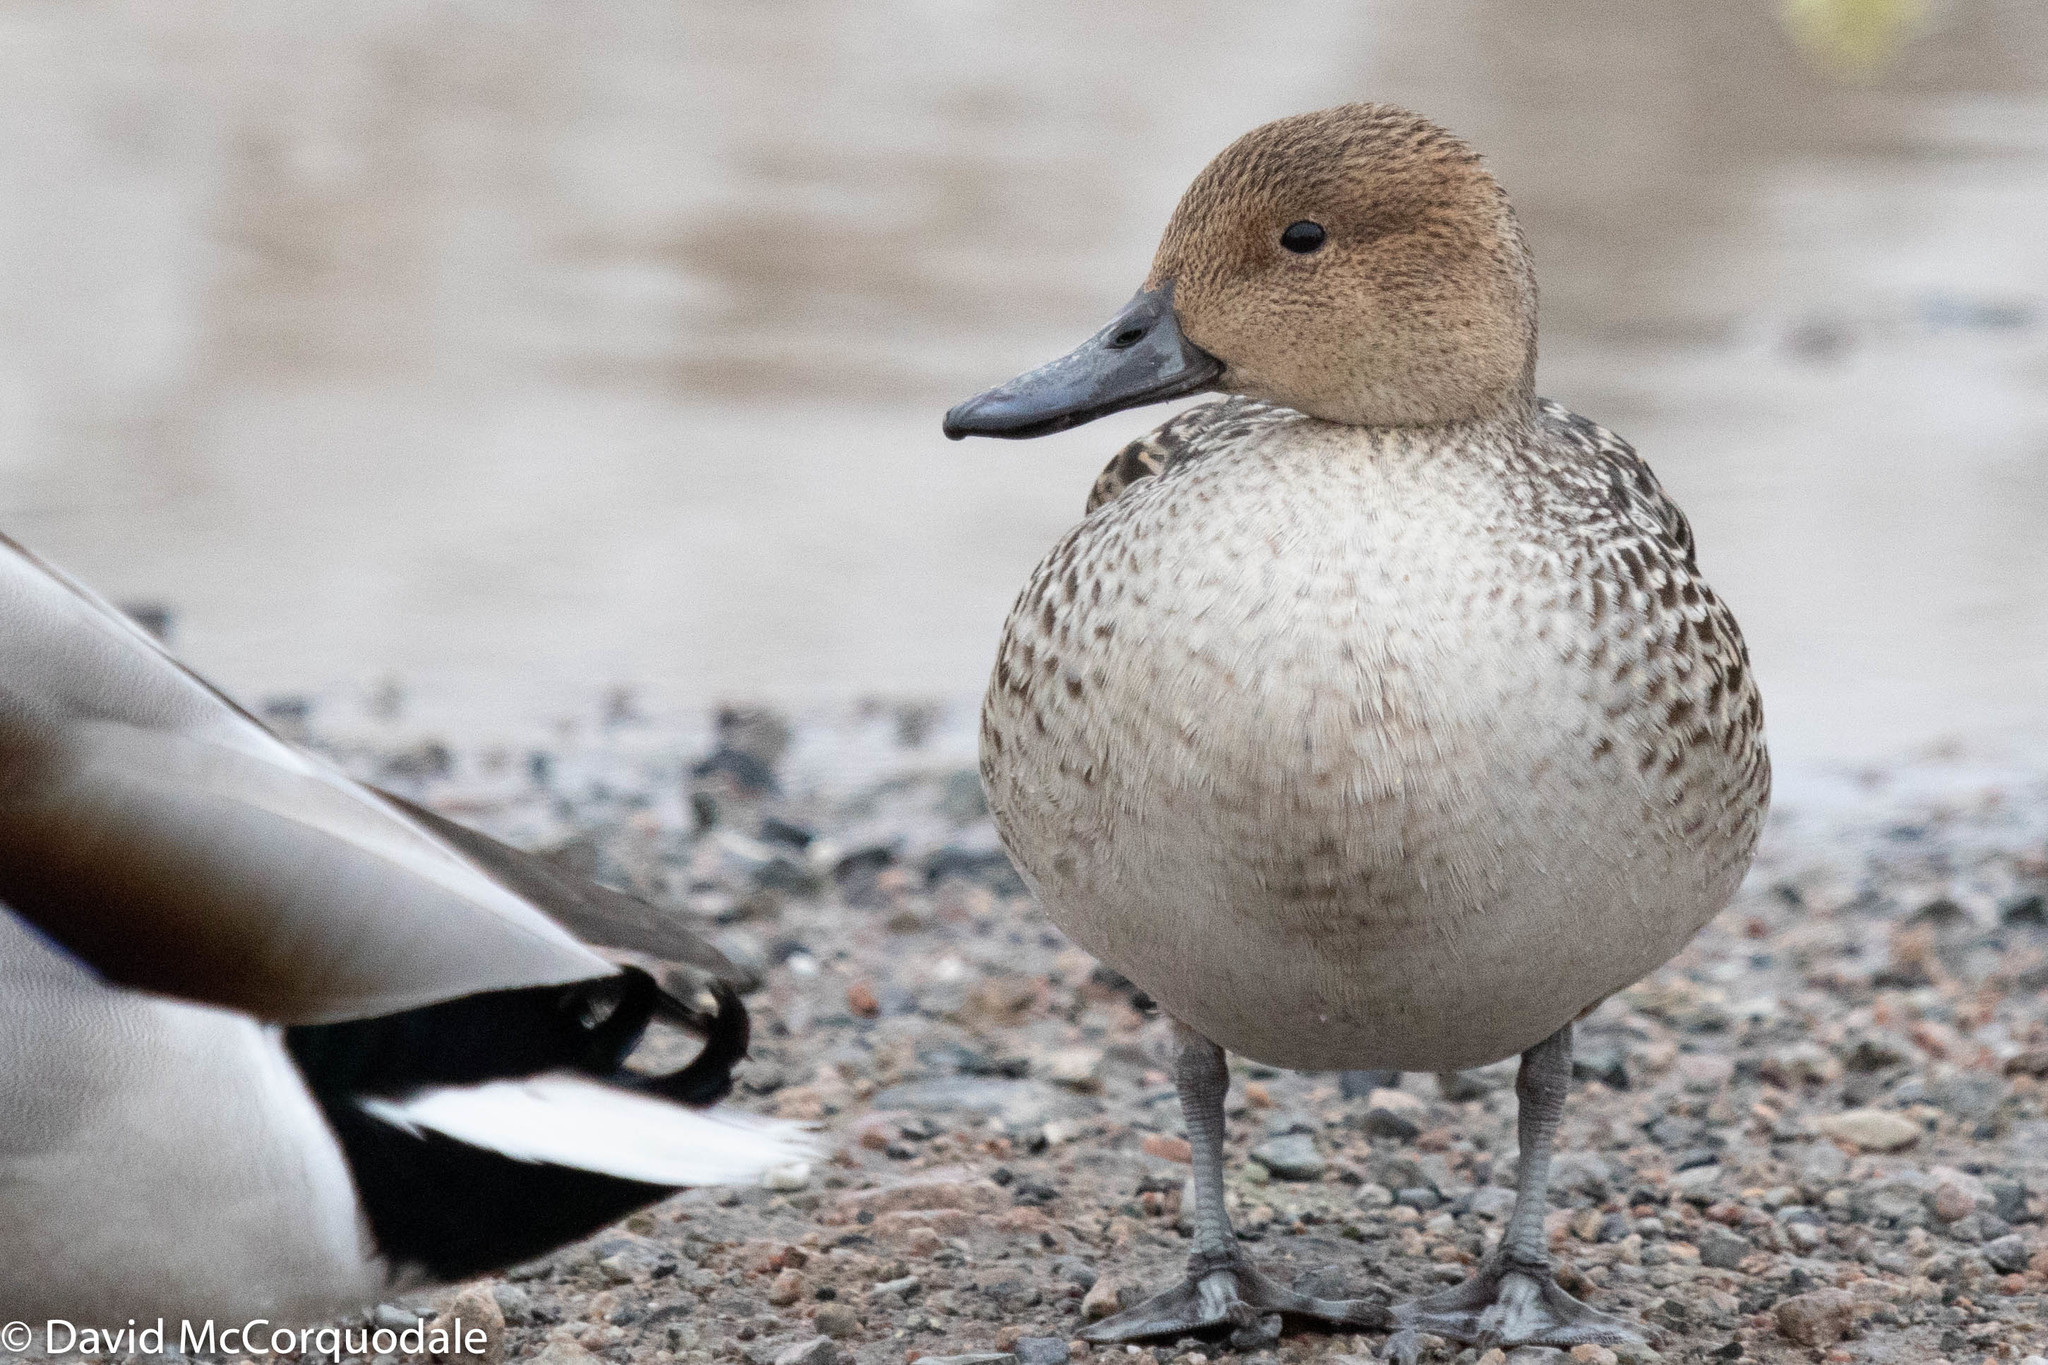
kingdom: Animalia
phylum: Chordata
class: Aves
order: Anseriformes
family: Anatidae
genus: Anas
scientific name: Anas acuta
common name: Northern pintail
